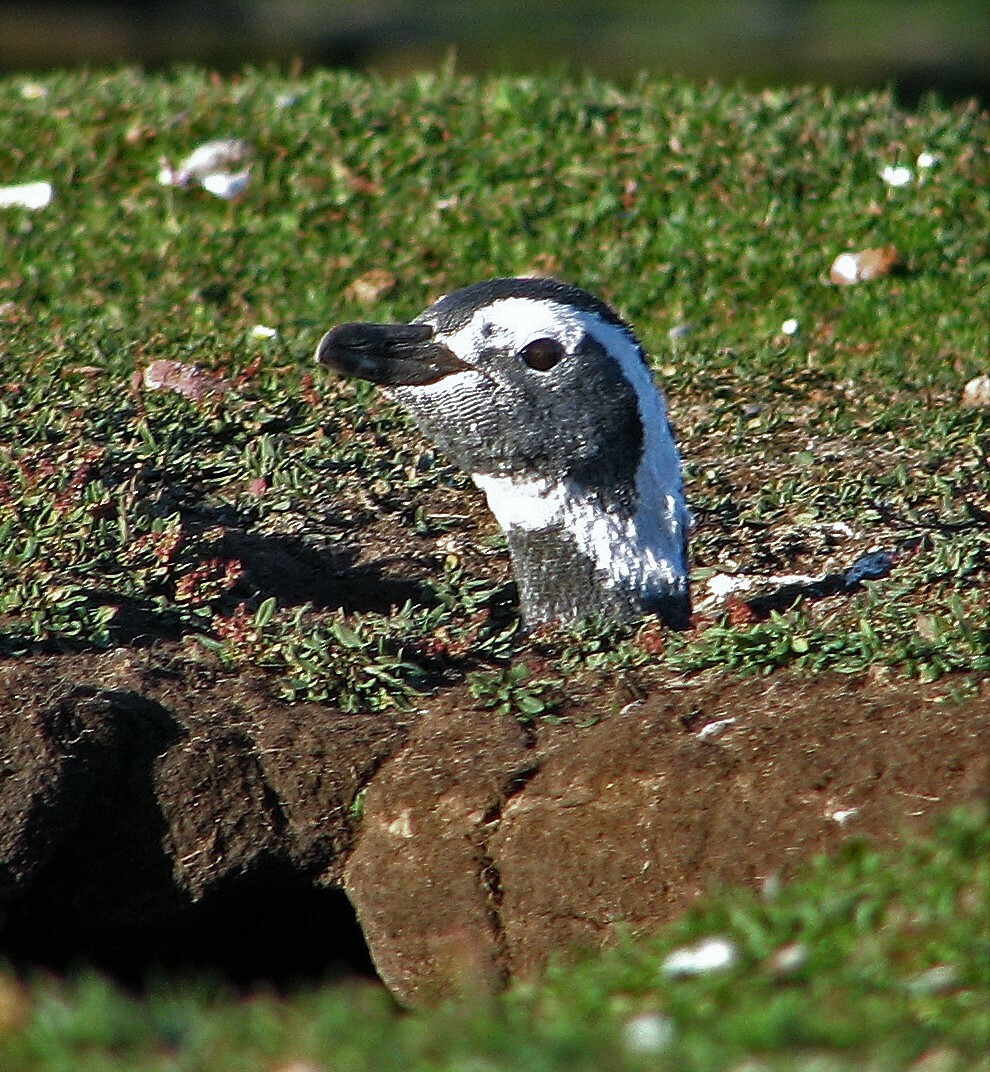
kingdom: Animalia
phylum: Chordata
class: Aves
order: Sphenisciformes
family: Spheniscidae
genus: Spheniscus
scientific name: Spheniscus magellanicus
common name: Magellanic penguin
